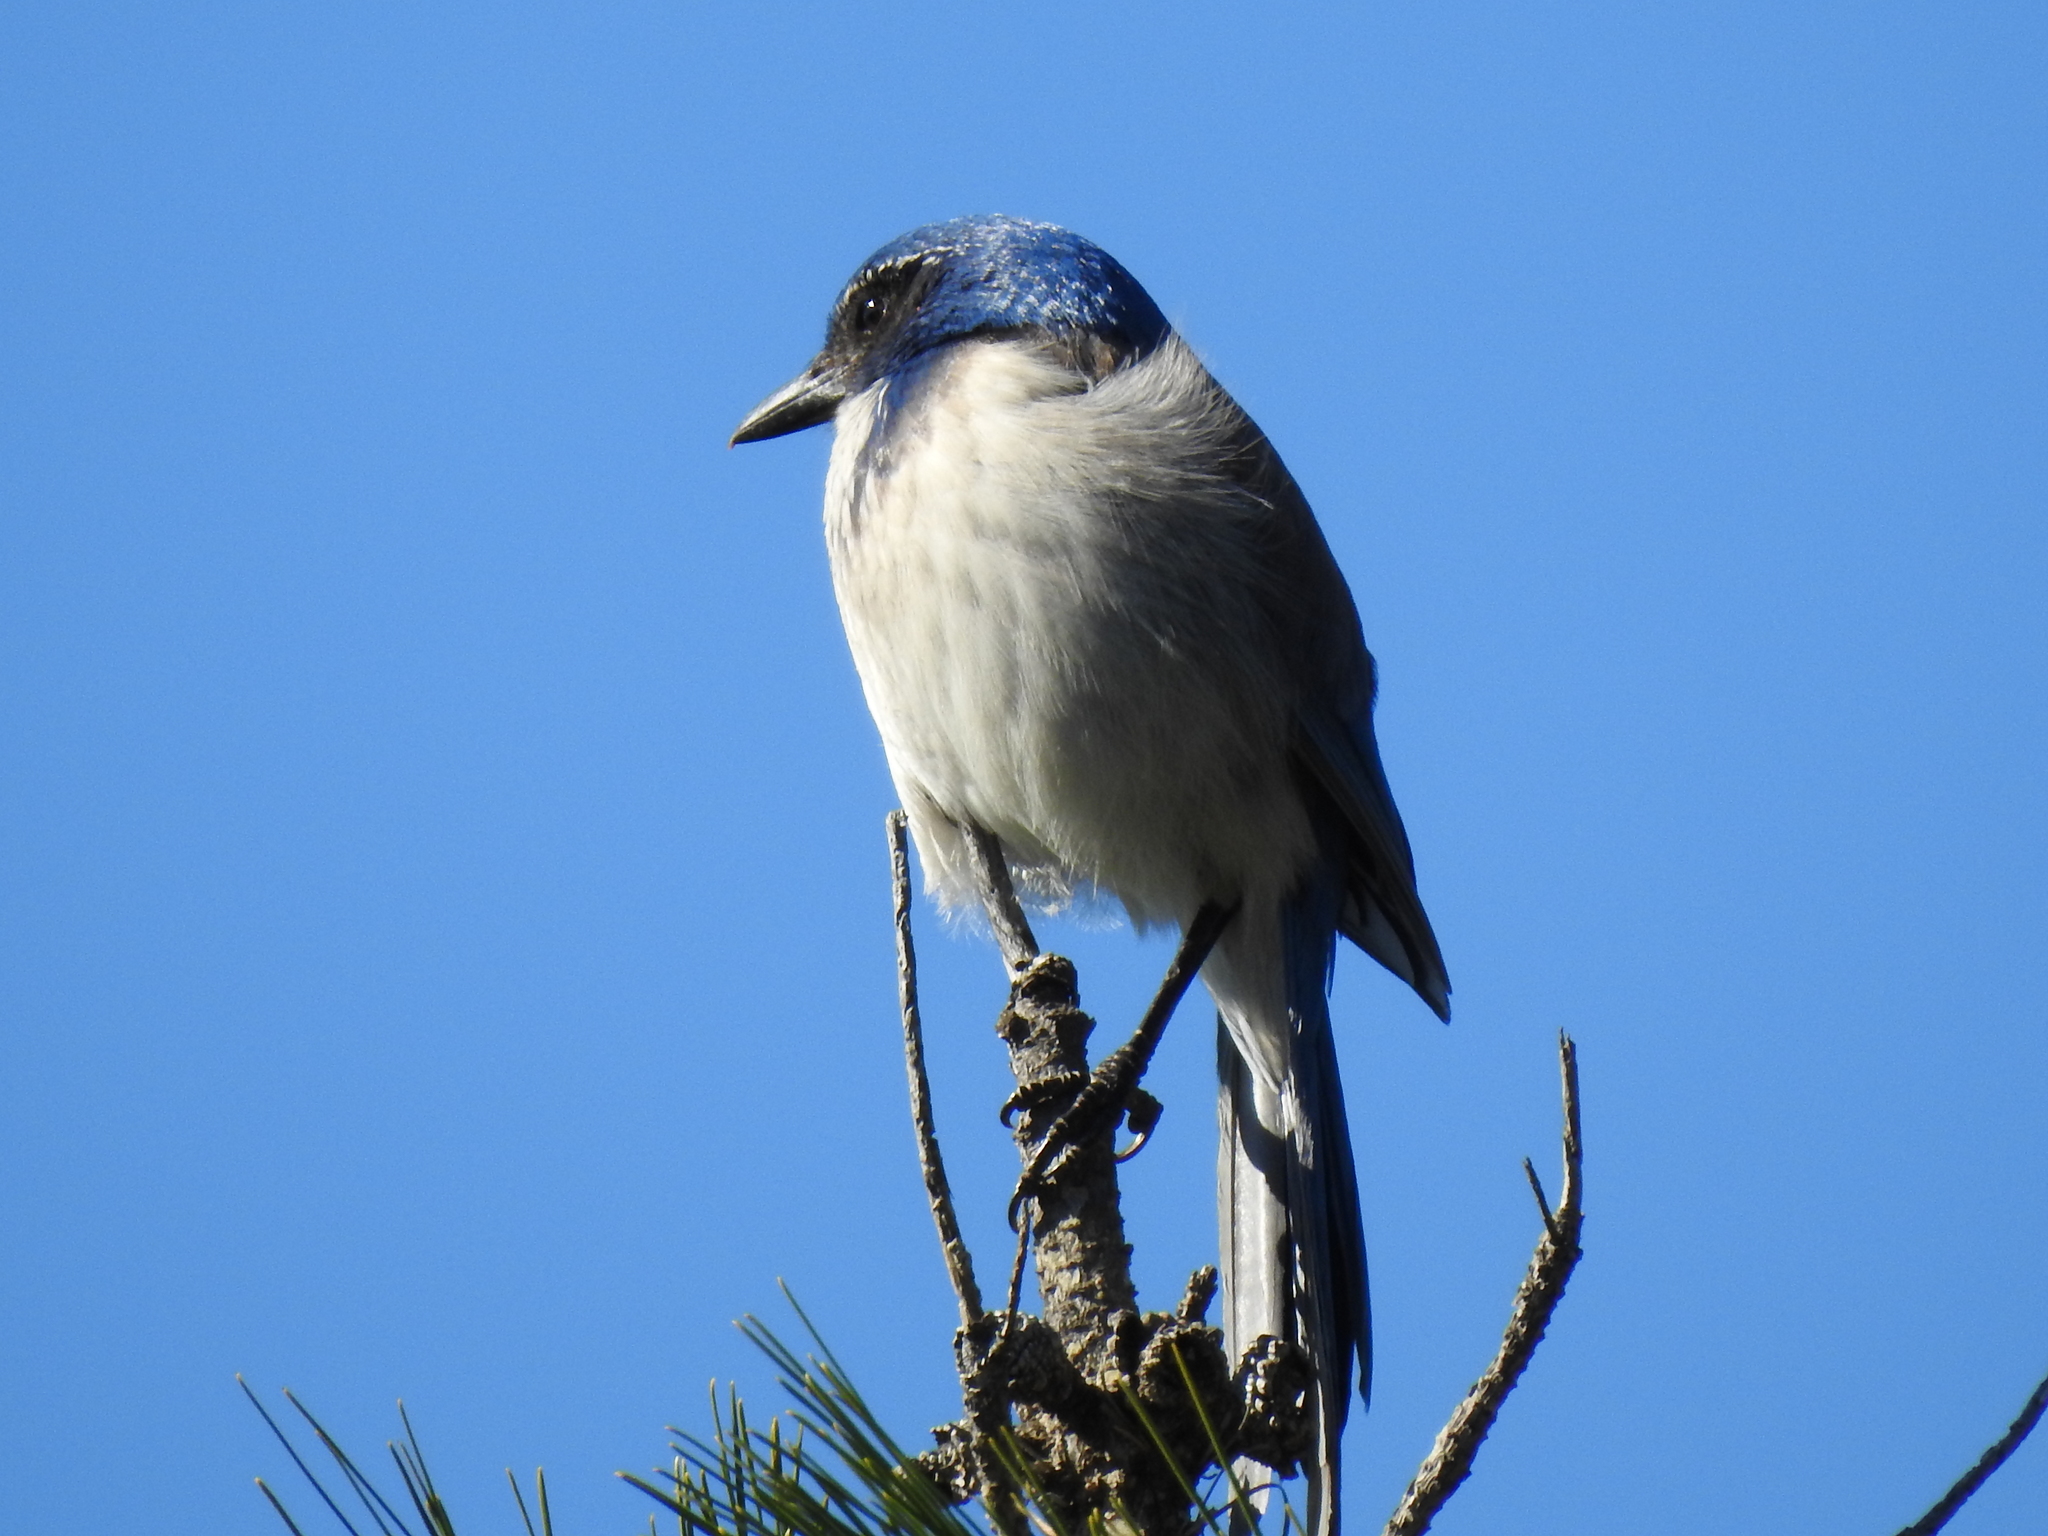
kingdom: Animalia
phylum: Chordata
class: Aves
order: Passeriformes
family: Corvidae
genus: Aphelocoma
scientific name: Aphelocoma californica
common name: California scrub-jay
